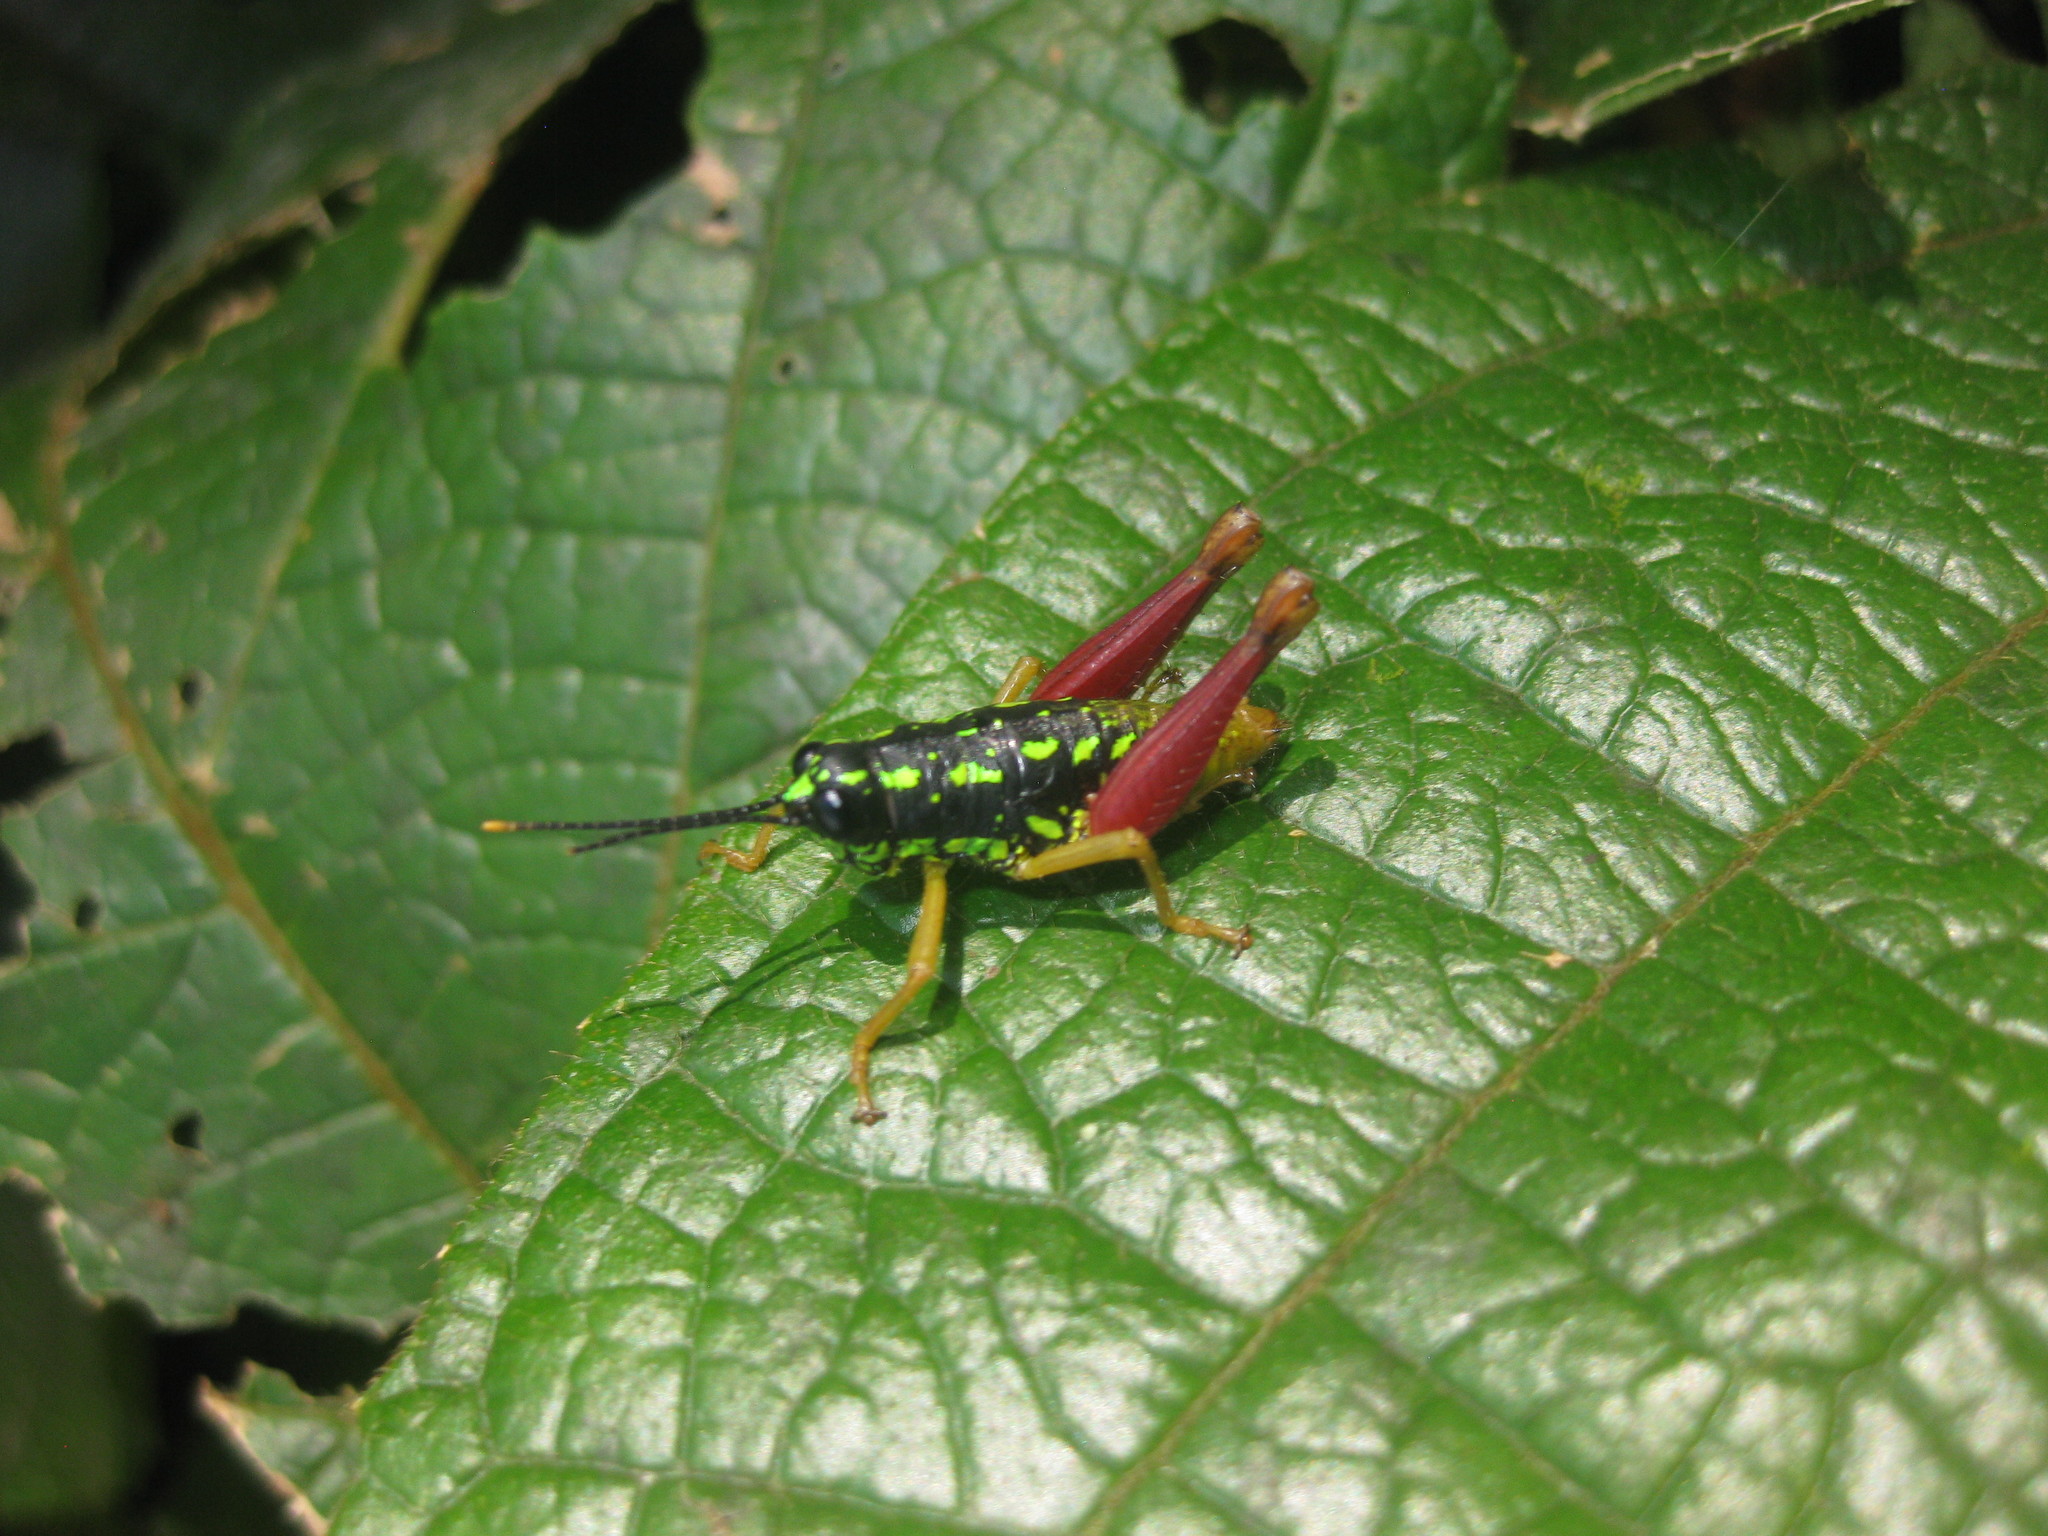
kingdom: Animalia
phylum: Arthropoda
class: Insecta
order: Orthoptera
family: Acrididae
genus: Galidacris
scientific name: Galidacris variabilis
